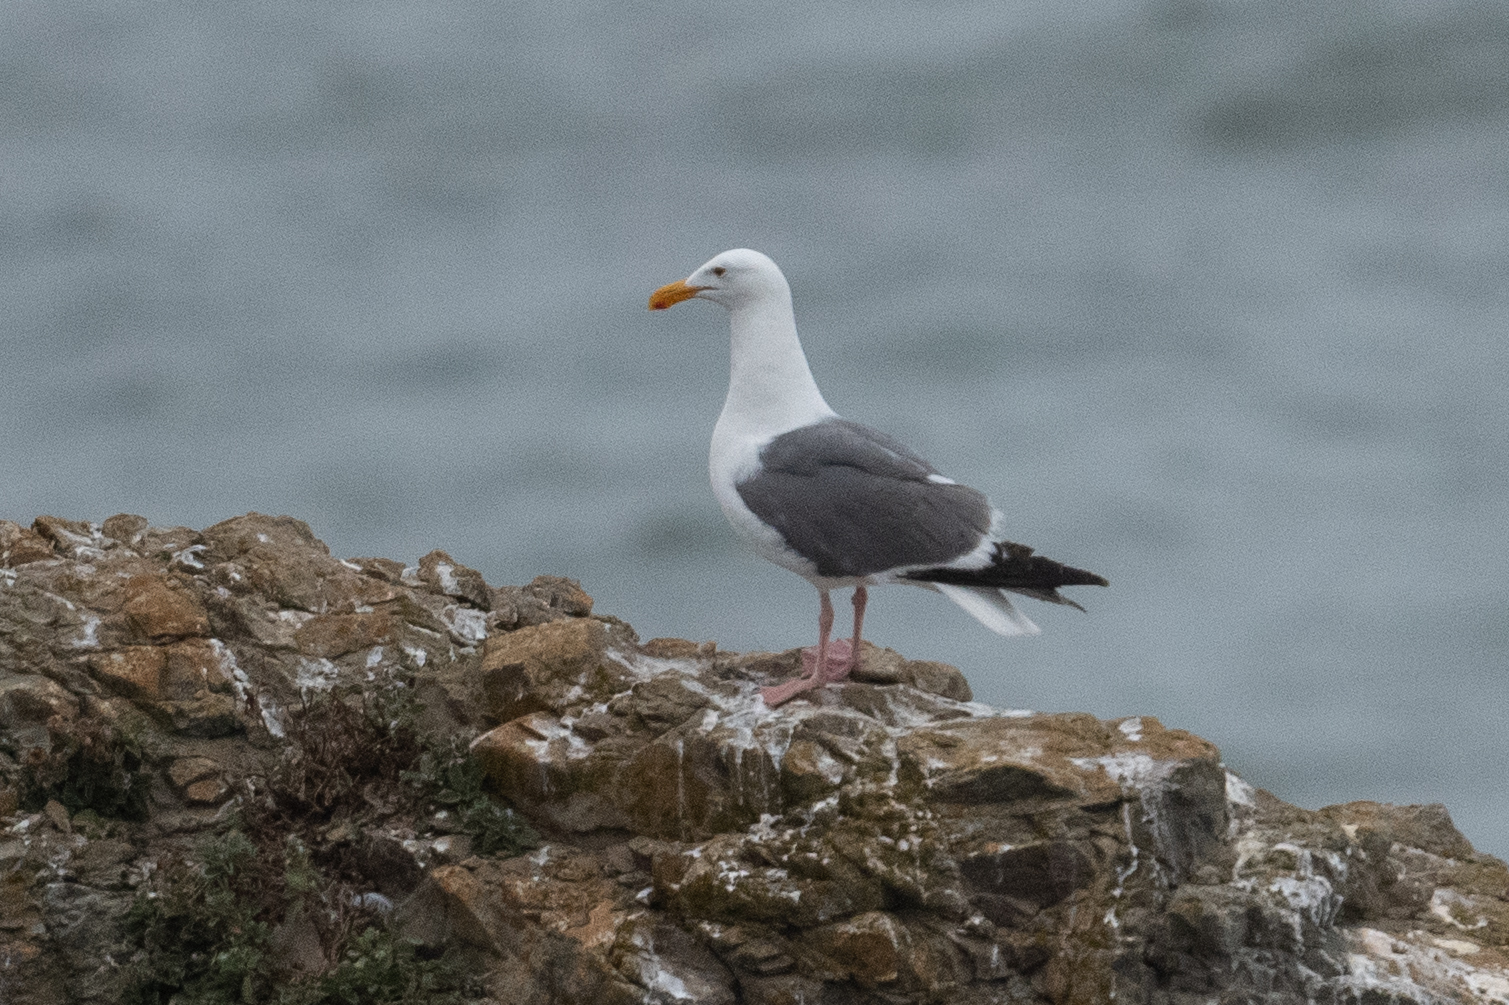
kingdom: Animalia
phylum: Chordata
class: Aves
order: Charadriiformes
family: Laridae
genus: Larus
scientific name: Larus occidentalis
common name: Western gull
